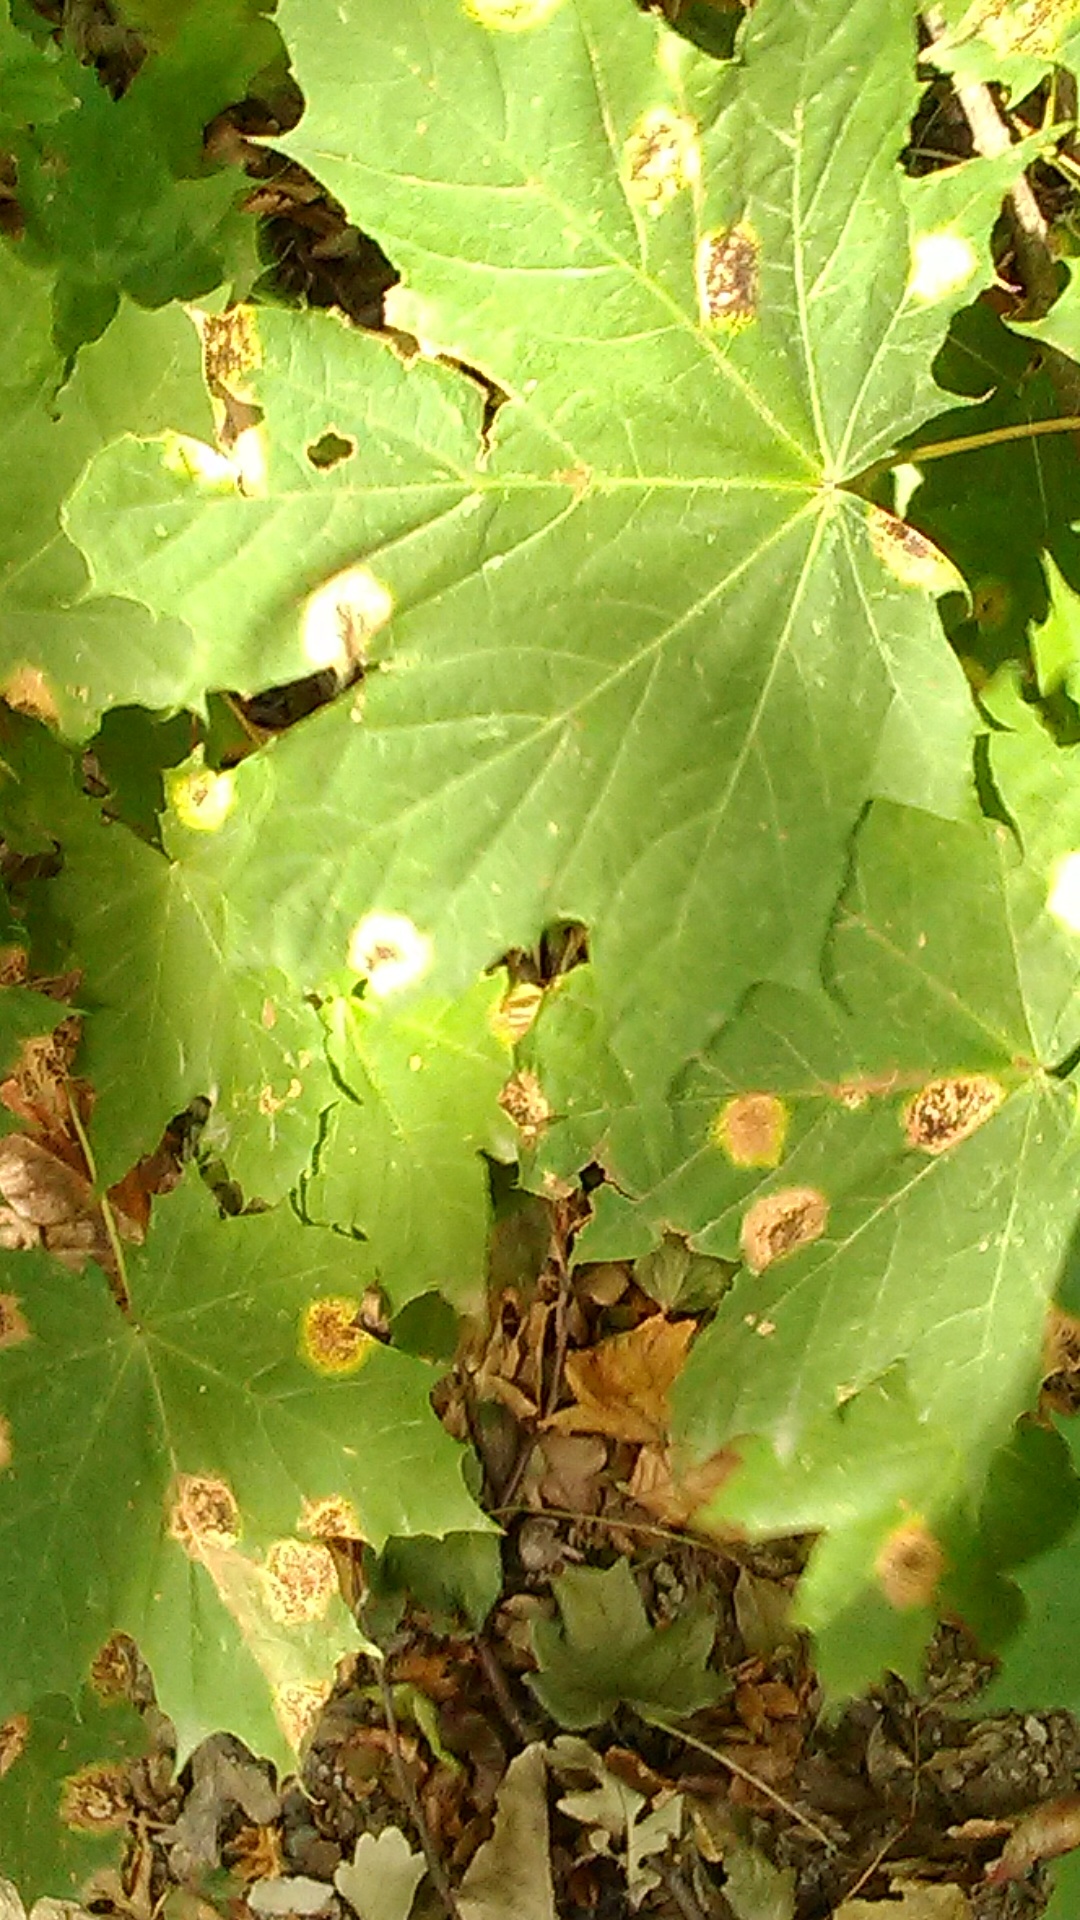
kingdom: Fungi
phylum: Ascomycota
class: Leotiomycetes
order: Rhytismatales
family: Rhytismataceae
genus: Rhytisma
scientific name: Rhytisma acerinum
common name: European tar spot
